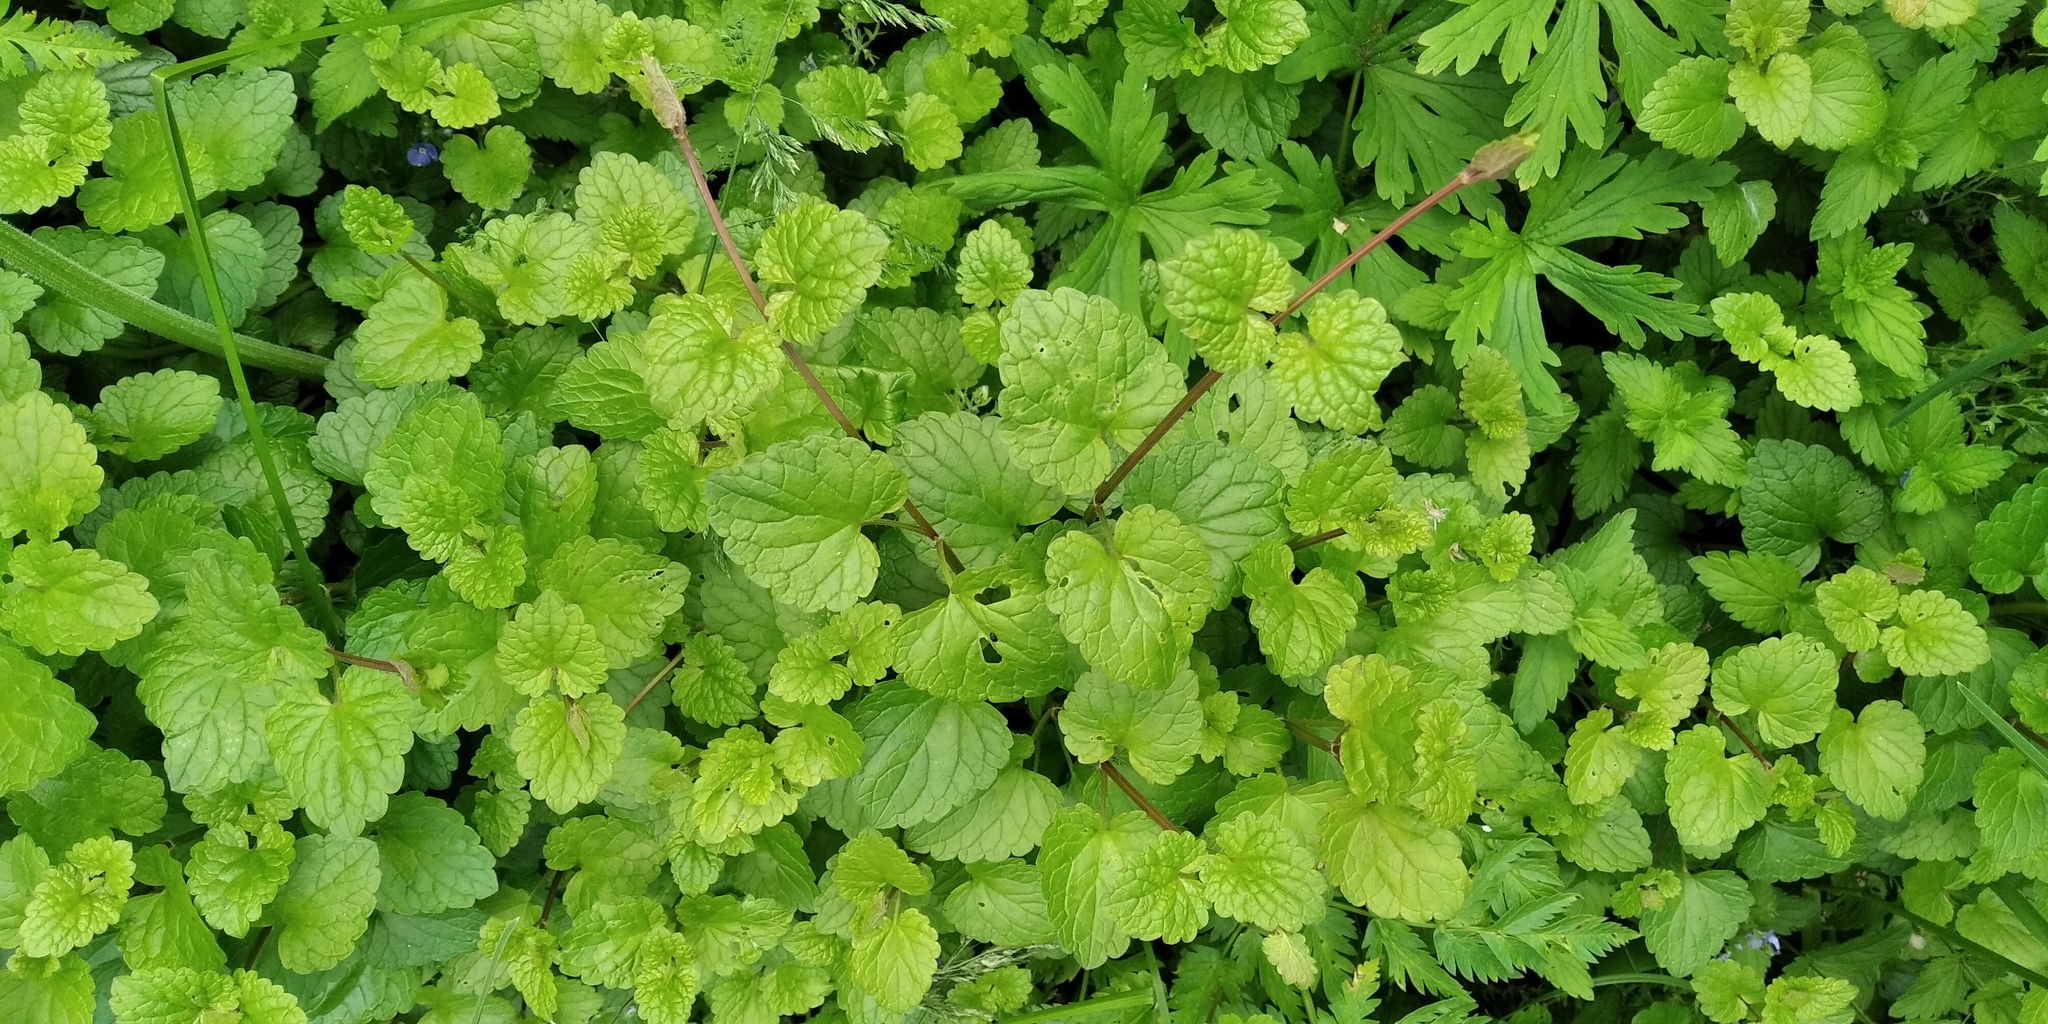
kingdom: Plantae
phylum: Tracheophyta
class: Magnoliopsida
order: Lamiales
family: Lamiaceae
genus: Glechoma
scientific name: Glechoma hederacea
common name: Ground ivy
